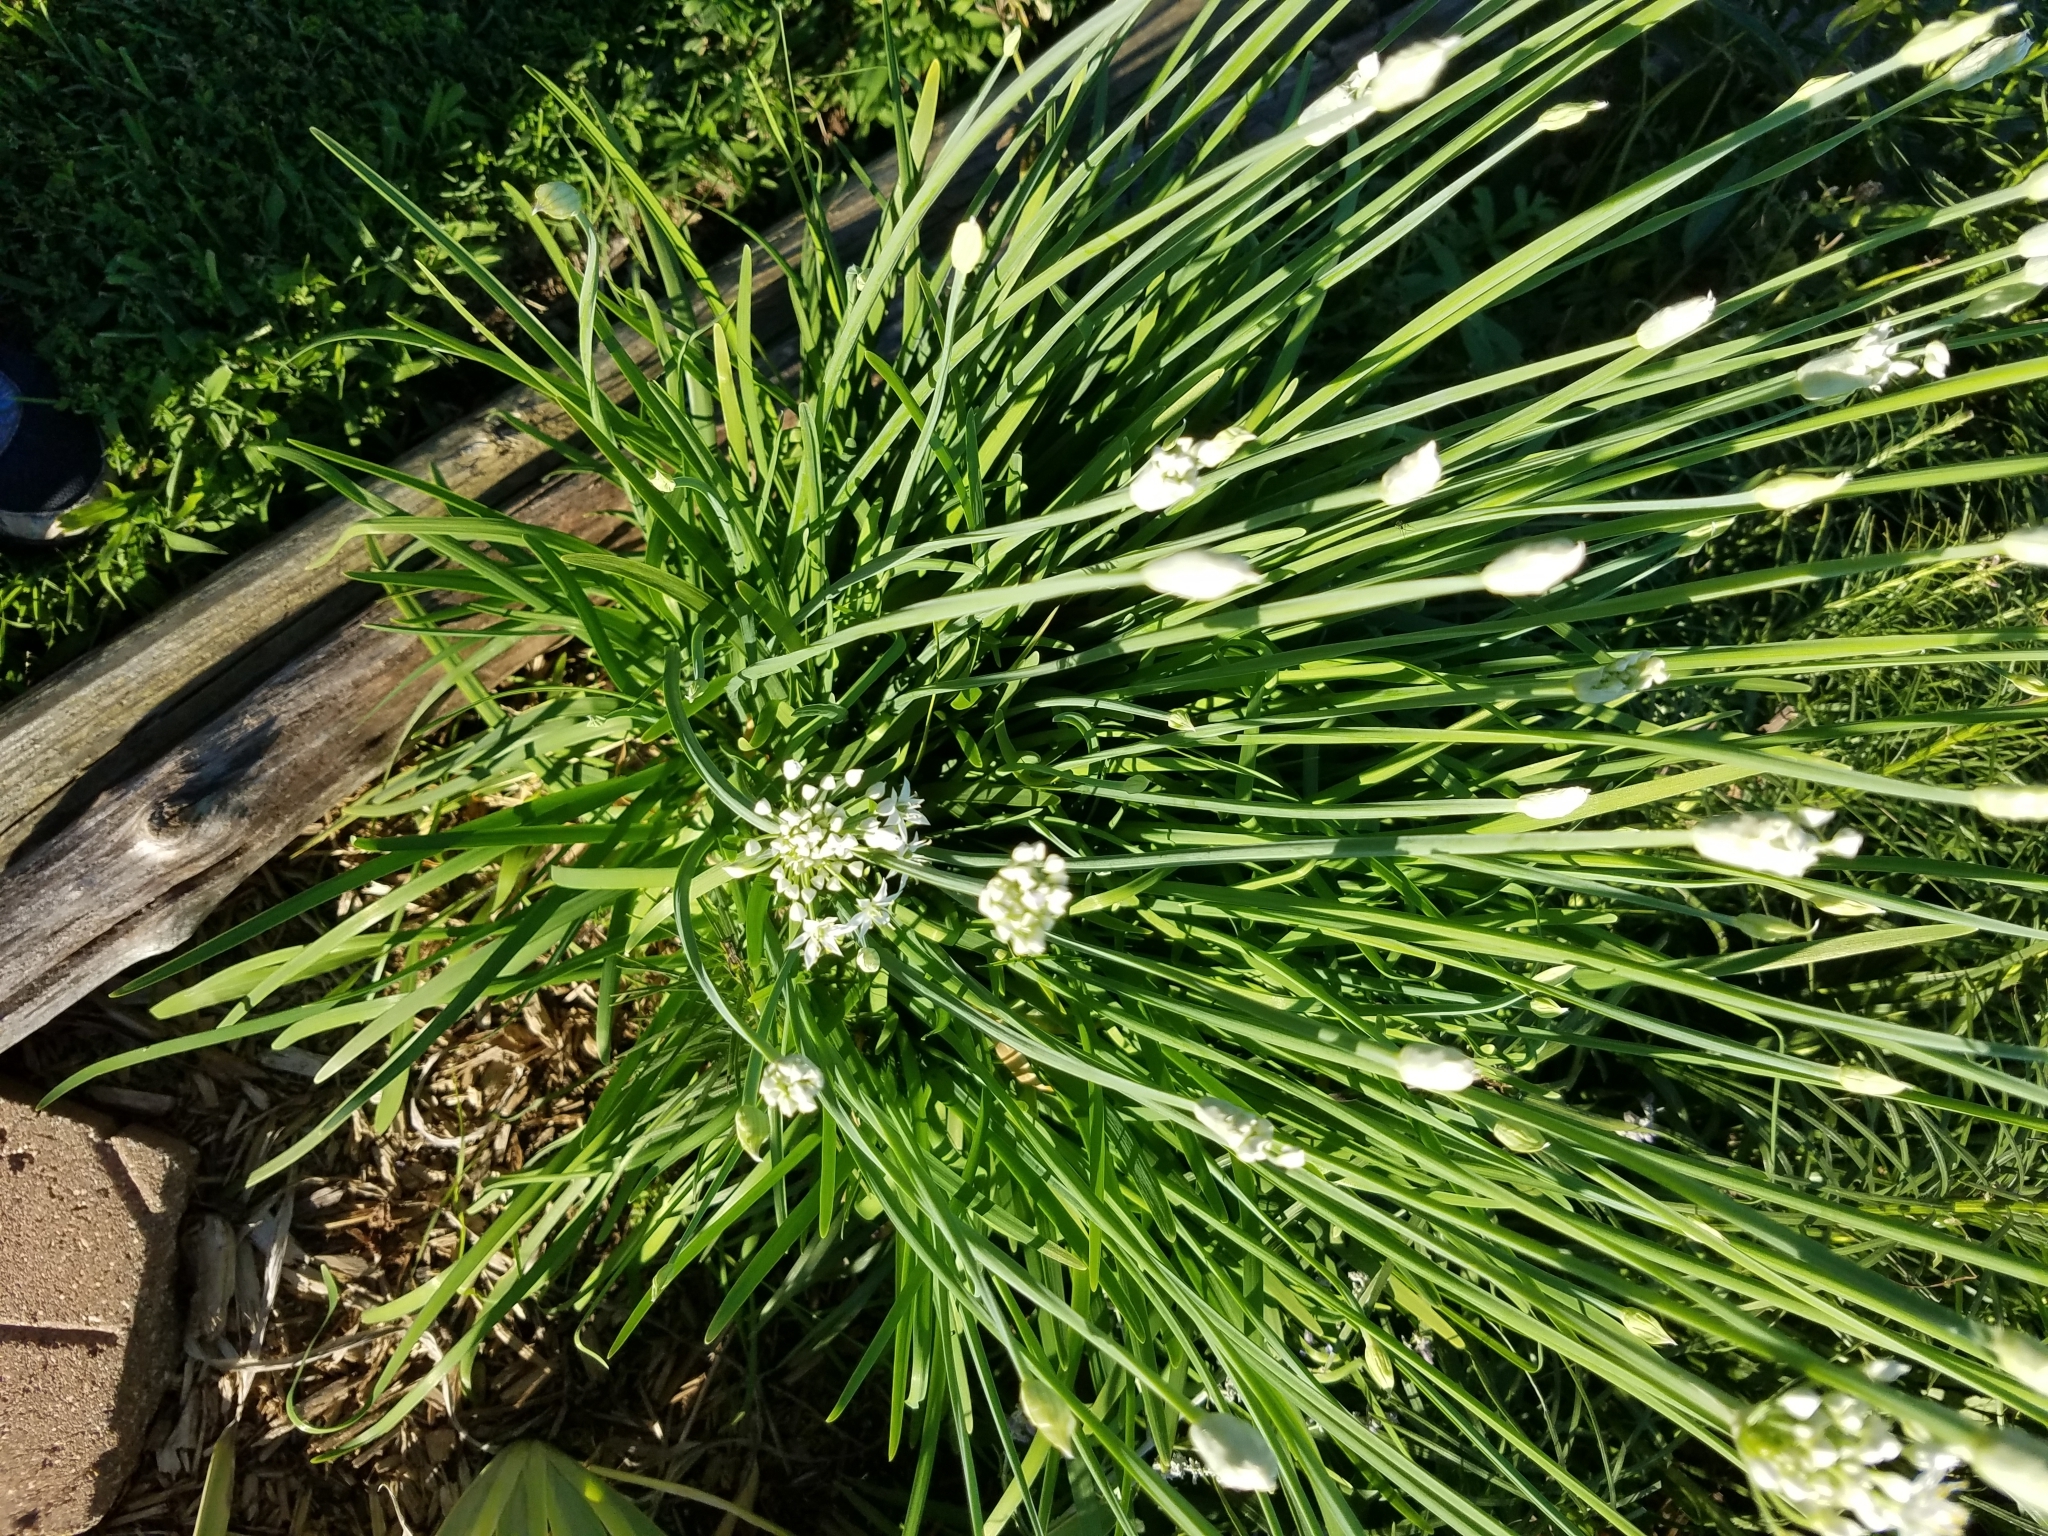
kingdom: Plantae
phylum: Tracheophyta
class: Liliopsida
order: Asparagales
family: Amaryllidaceae
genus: Allium
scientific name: Allium tuberosum
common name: Chinese chives
